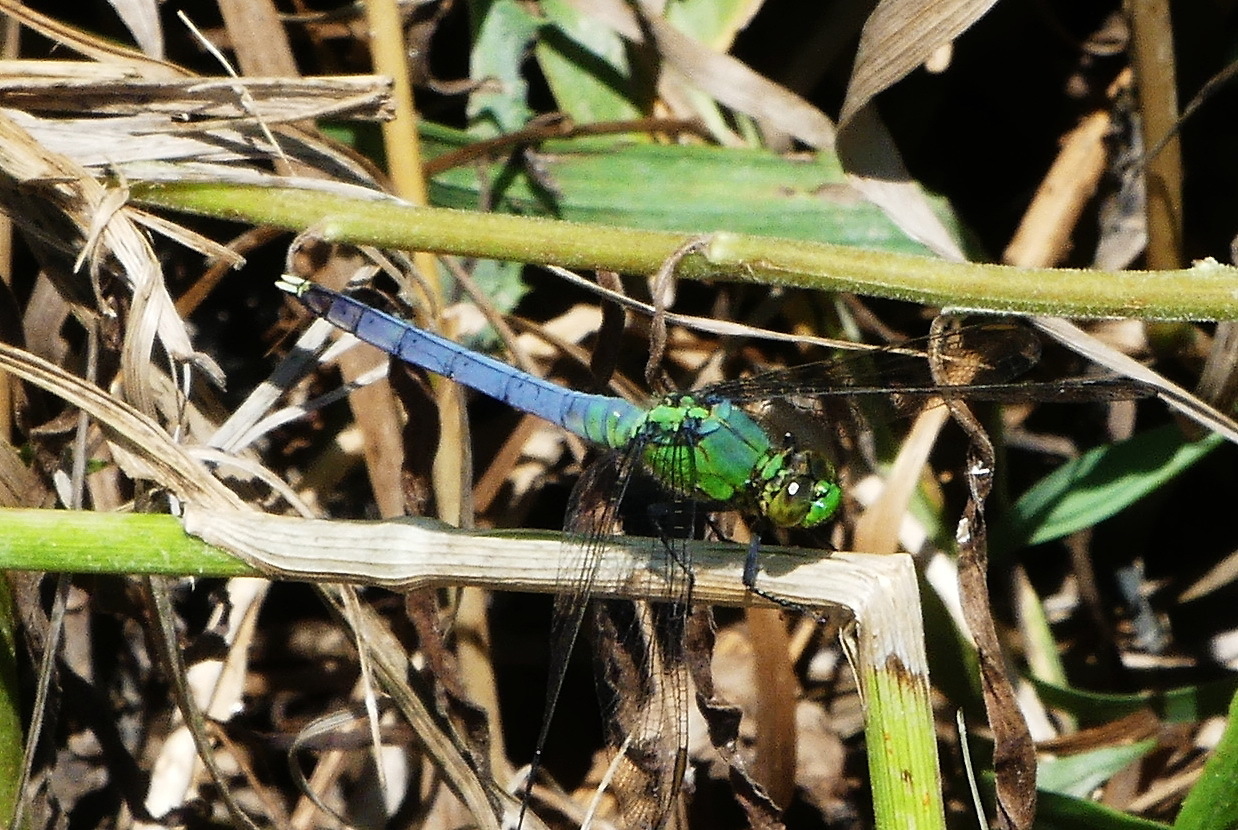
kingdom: Animalia
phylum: Arthropoda
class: Insecta
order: Odonata
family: Libellulidae
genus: Erythemis
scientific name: Erythemis simplicicollis
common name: Eastern pondhawk
